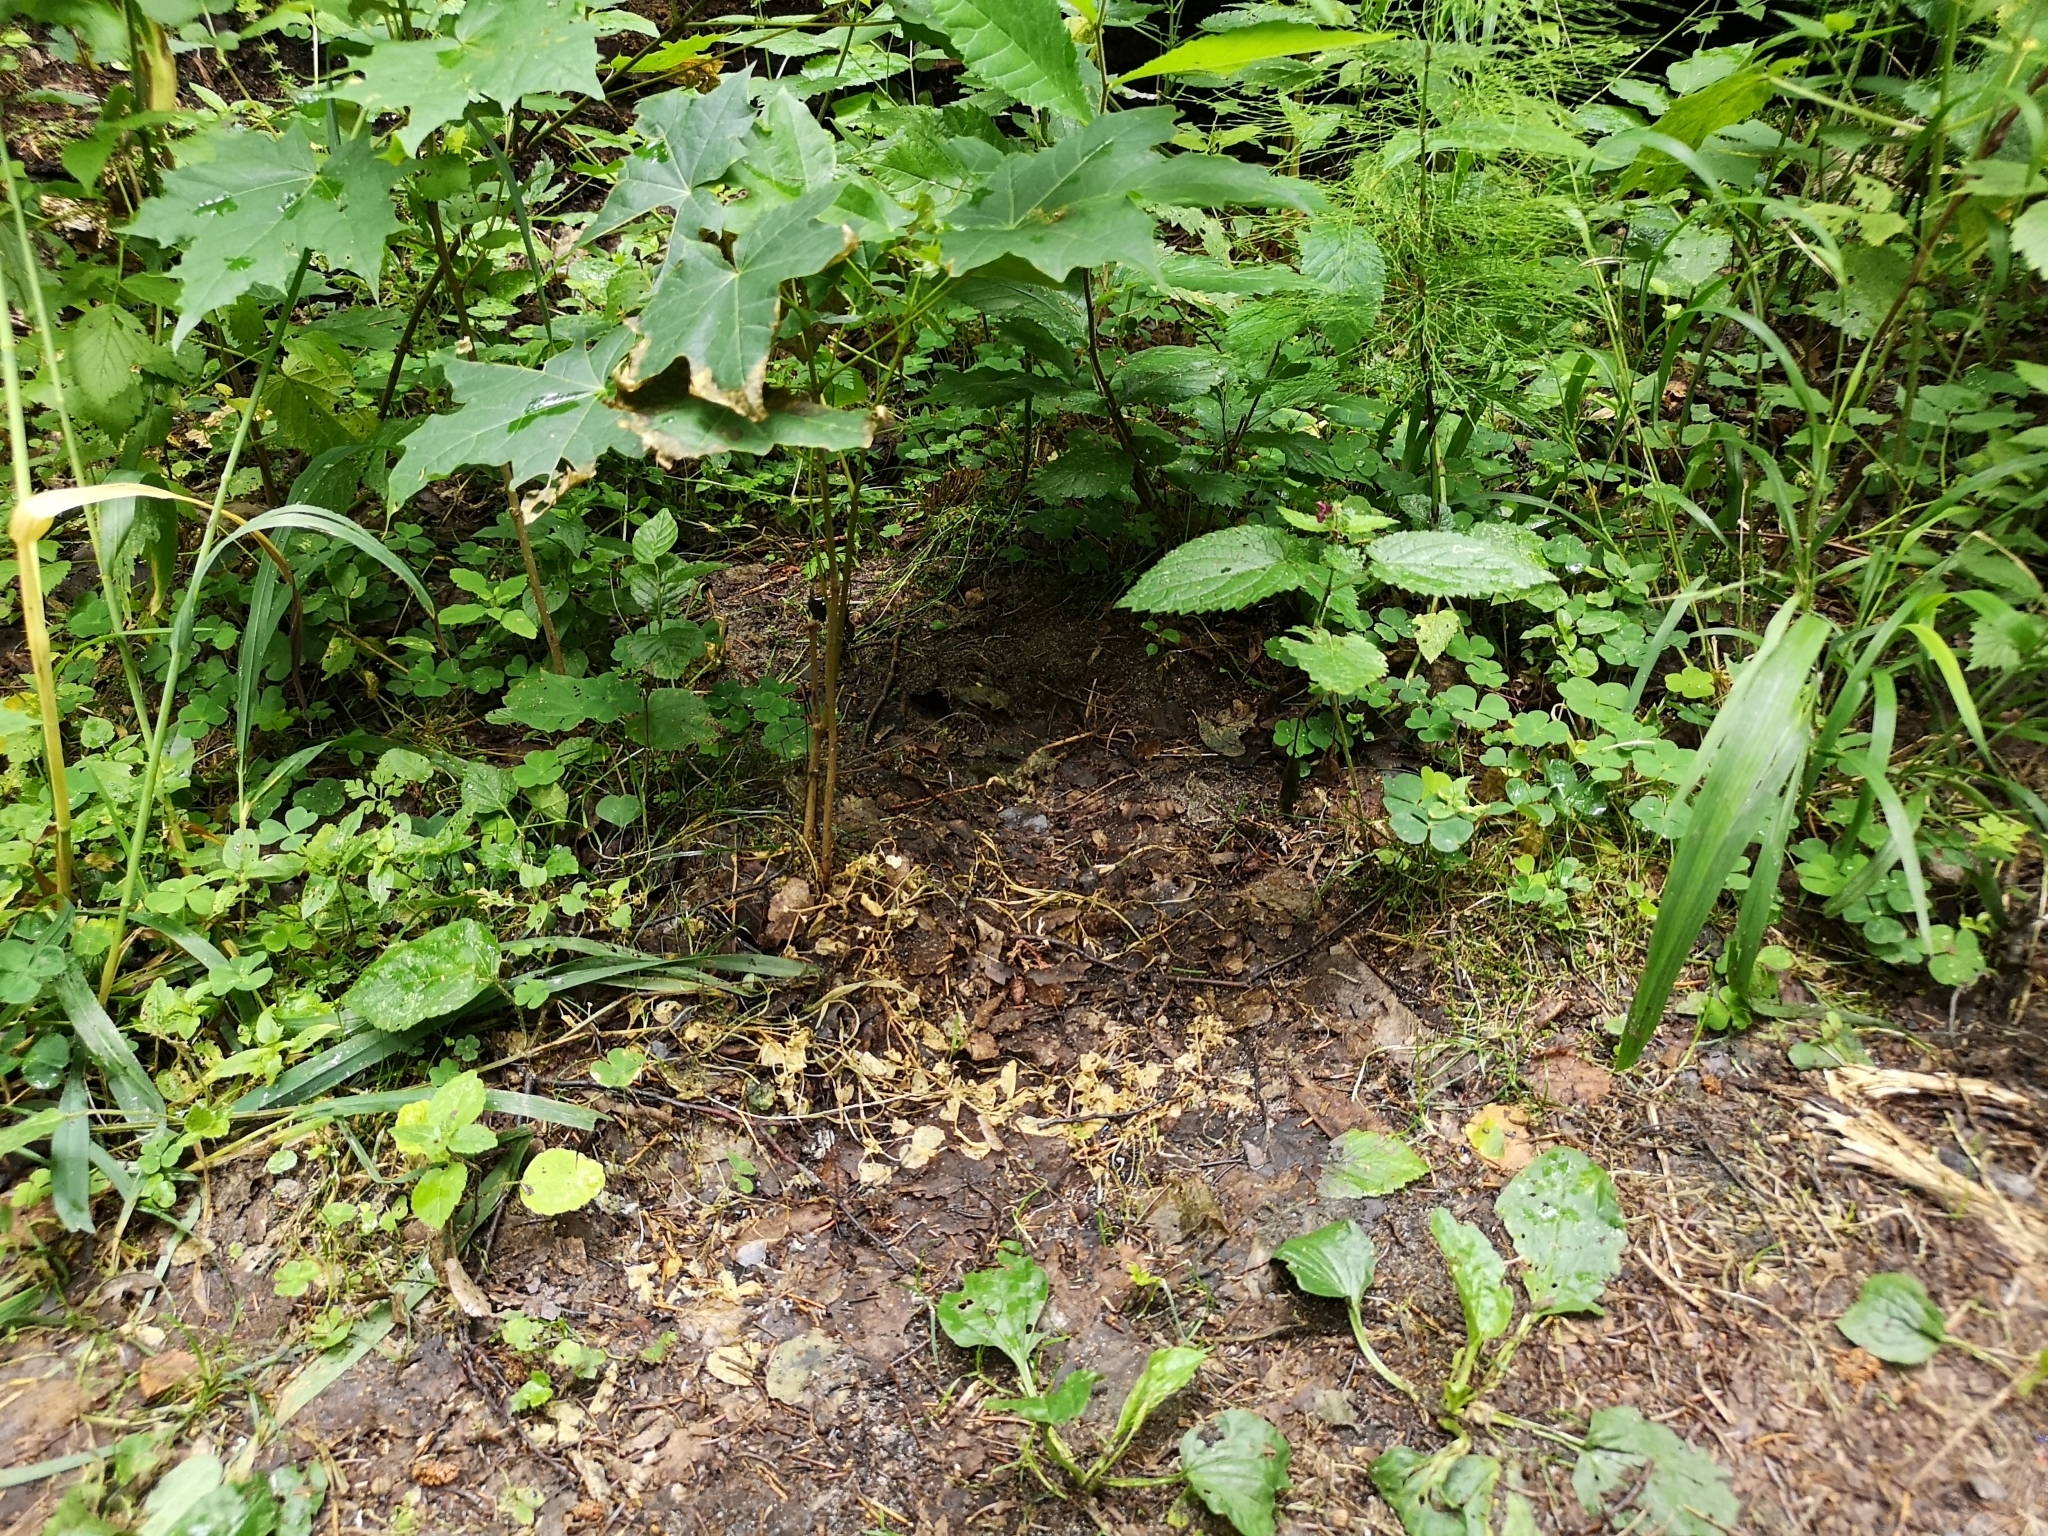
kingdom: Animalia
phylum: Chordata
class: Mammalia
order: Carnivora
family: Canidae
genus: Canis
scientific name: Canis lupus
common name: Gray wolf
